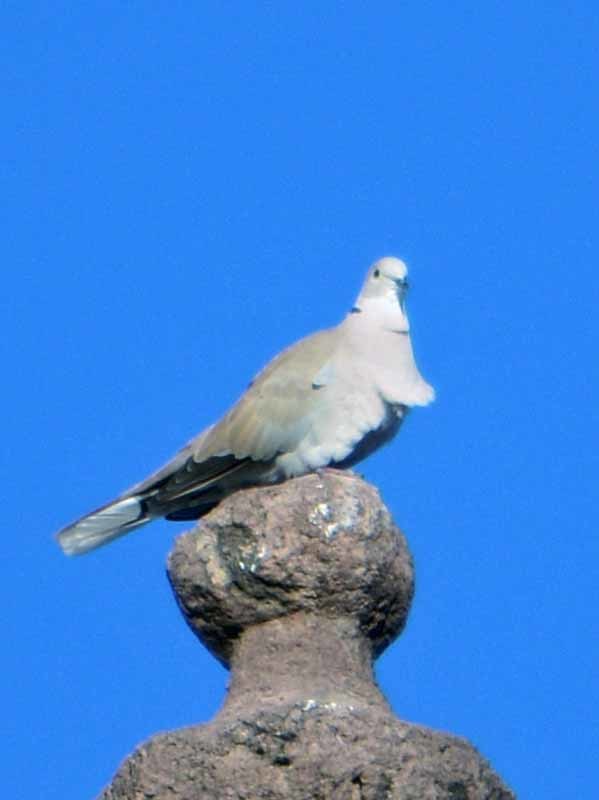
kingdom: Animalia
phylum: Chordata
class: Aves
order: Columbiformes
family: Columbidae
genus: Streptopelia
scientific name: Streptopelia decaocto
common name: Eurasian collared dove
